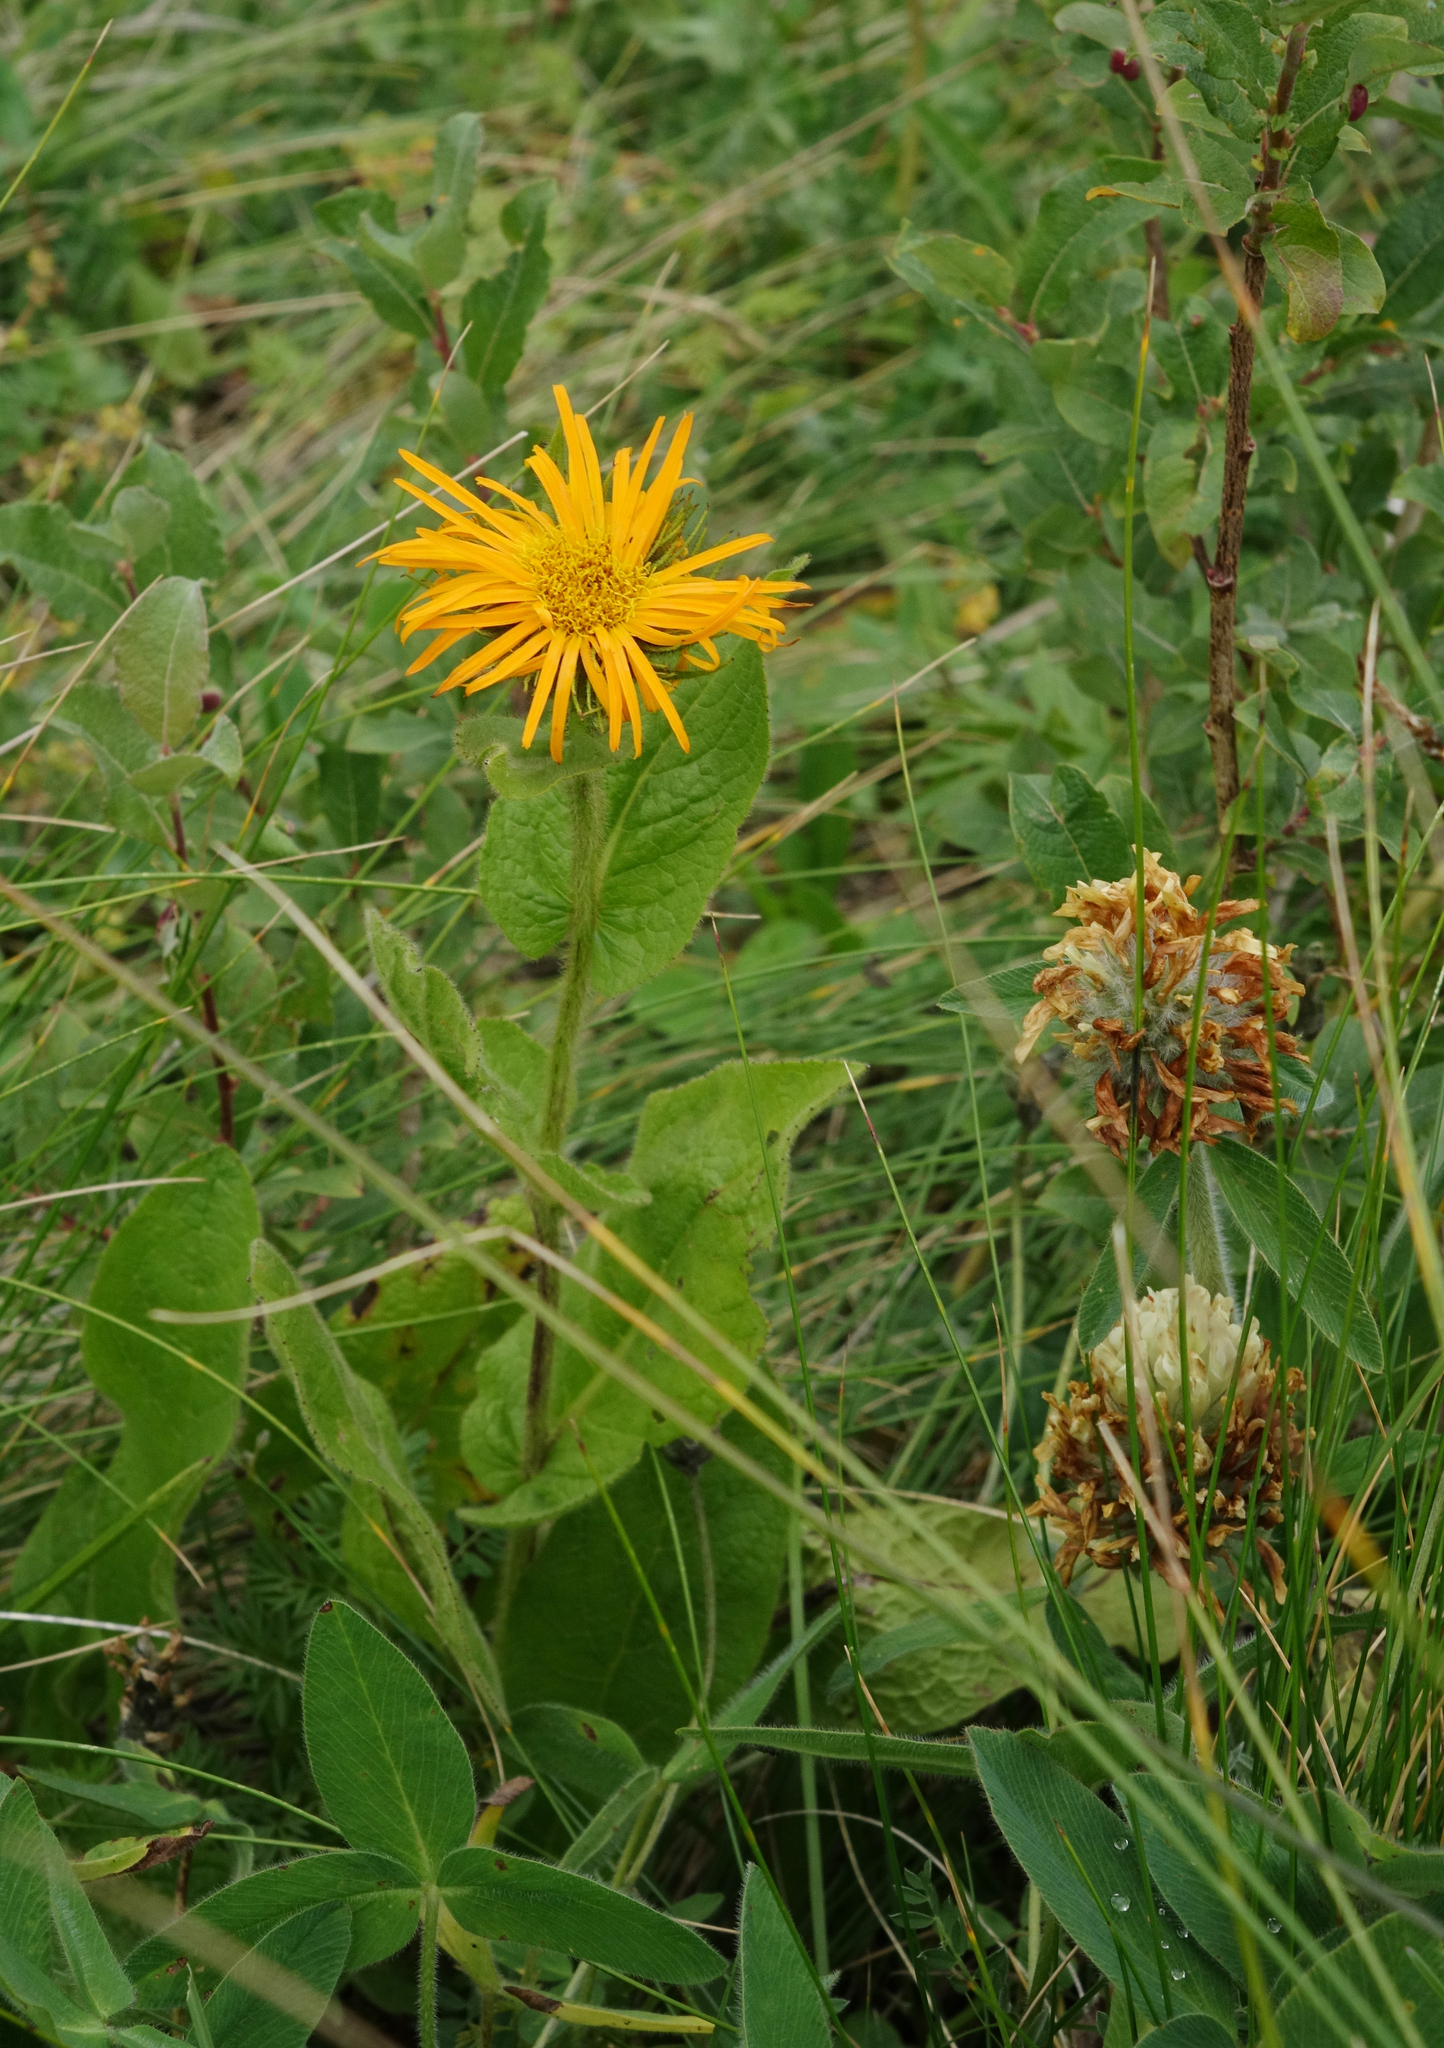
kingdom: Plantae
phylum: Tracheophyta
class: Magnoliopsida
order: Asterales
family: Asteraceae
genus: Pentanema
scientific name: Pentanema orientale
